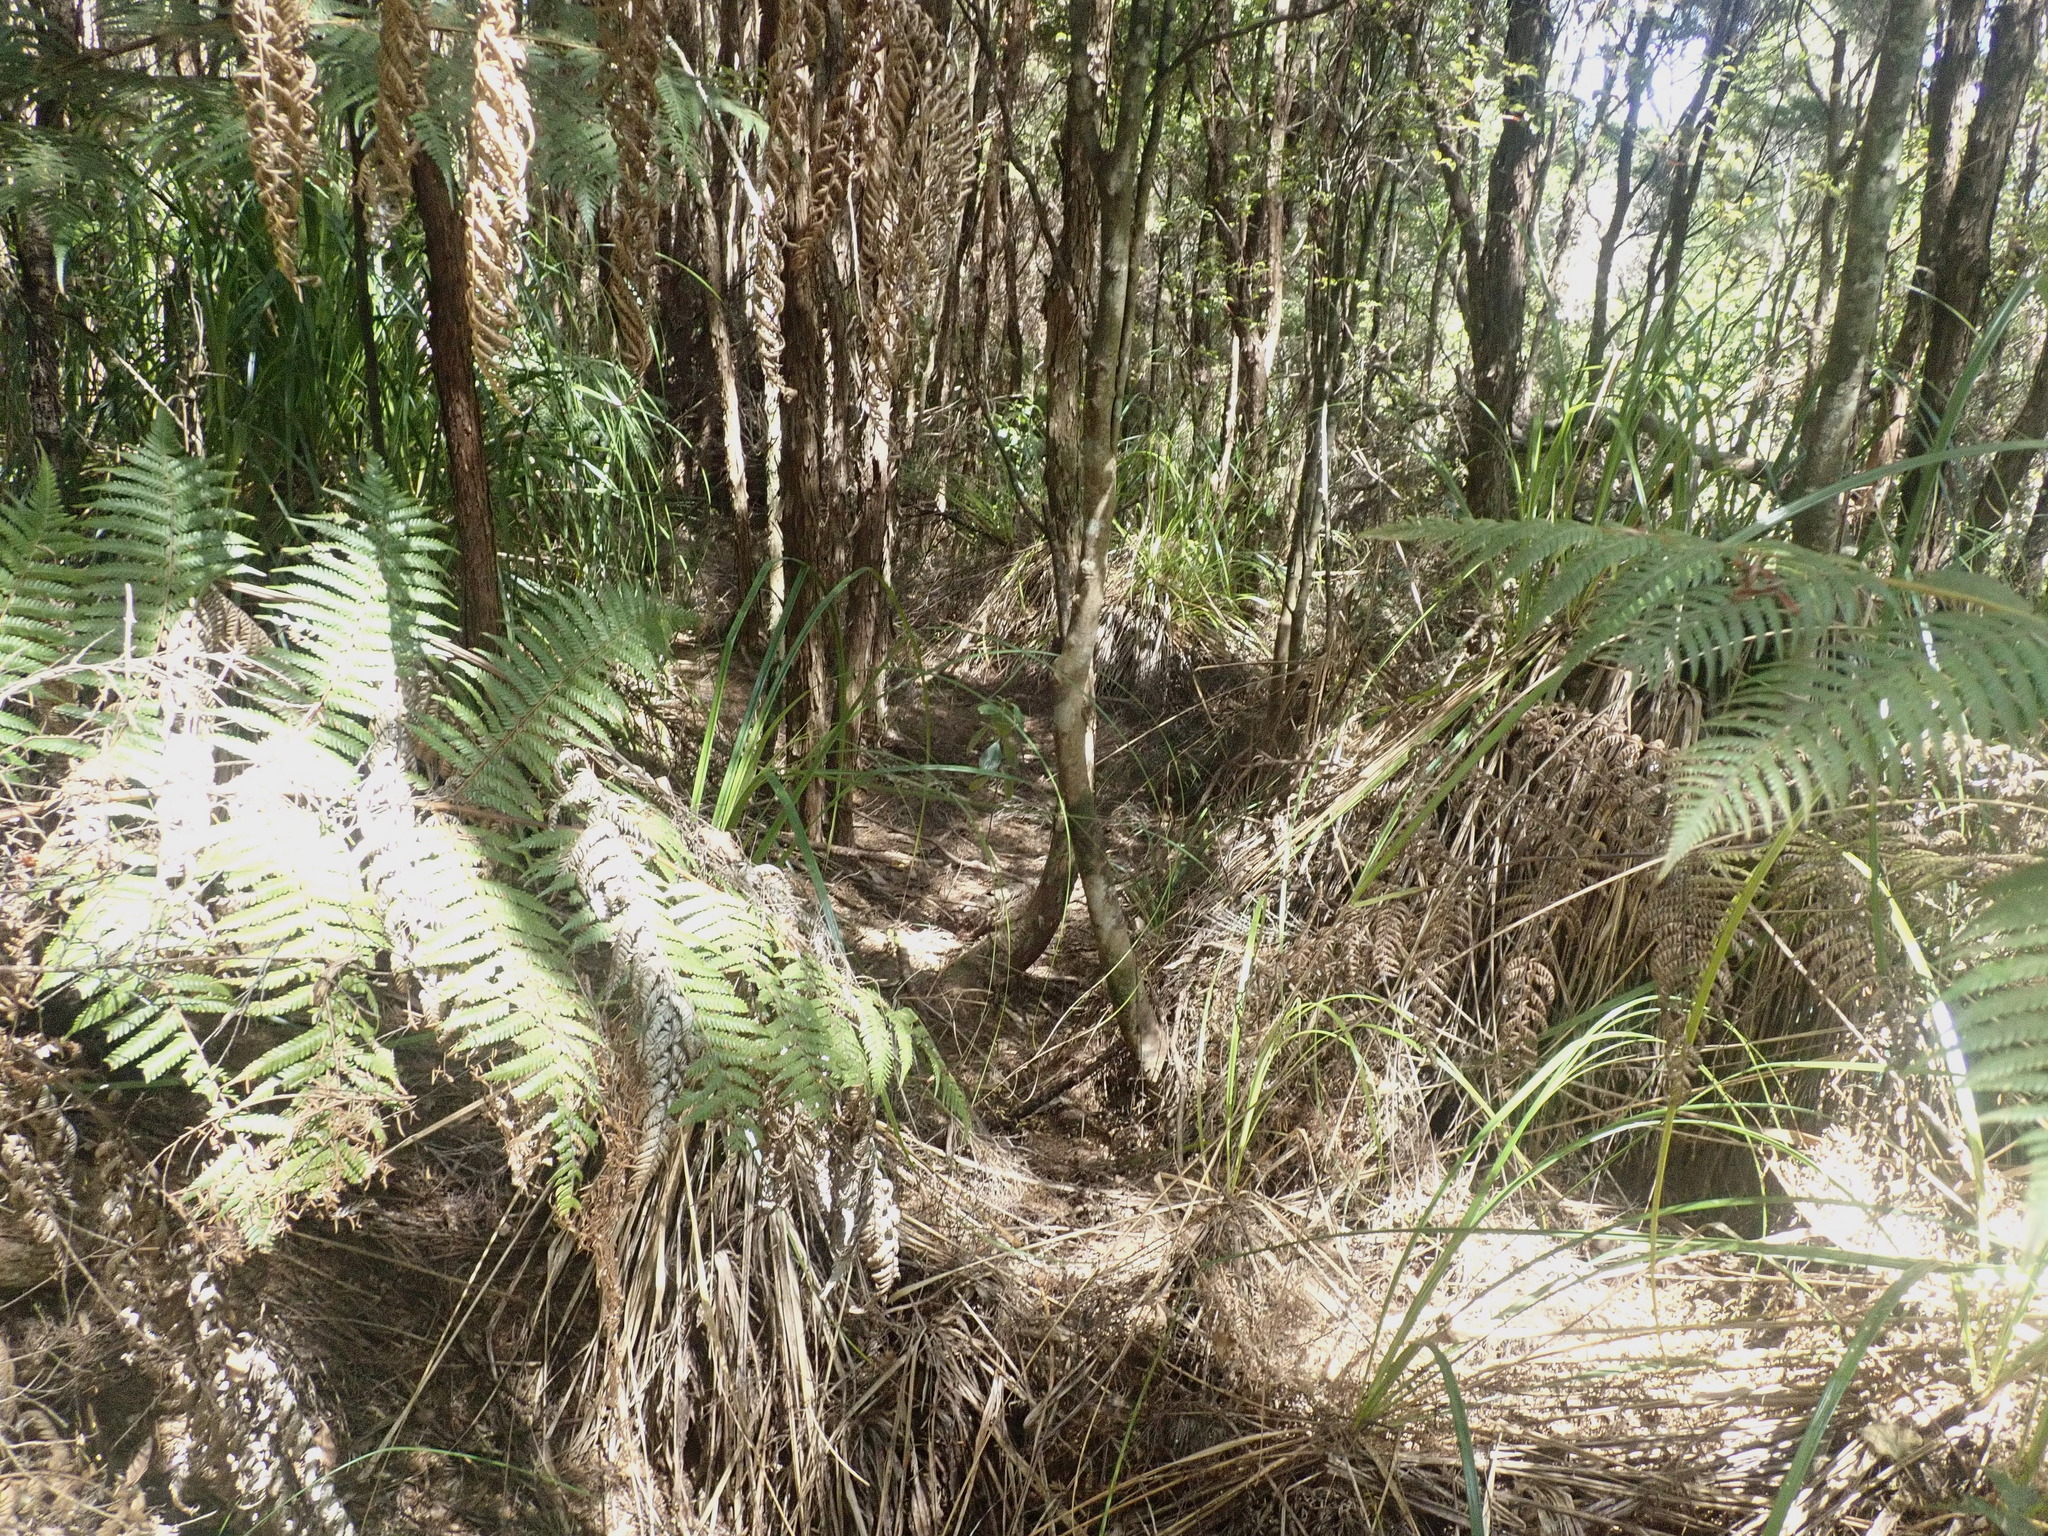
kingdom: Plantae
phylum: Tracheophyta
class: Polypodiopsida
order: Cyatheales
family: Cyatheaceae
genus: Alsophila
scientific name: Alsophila dealbata
